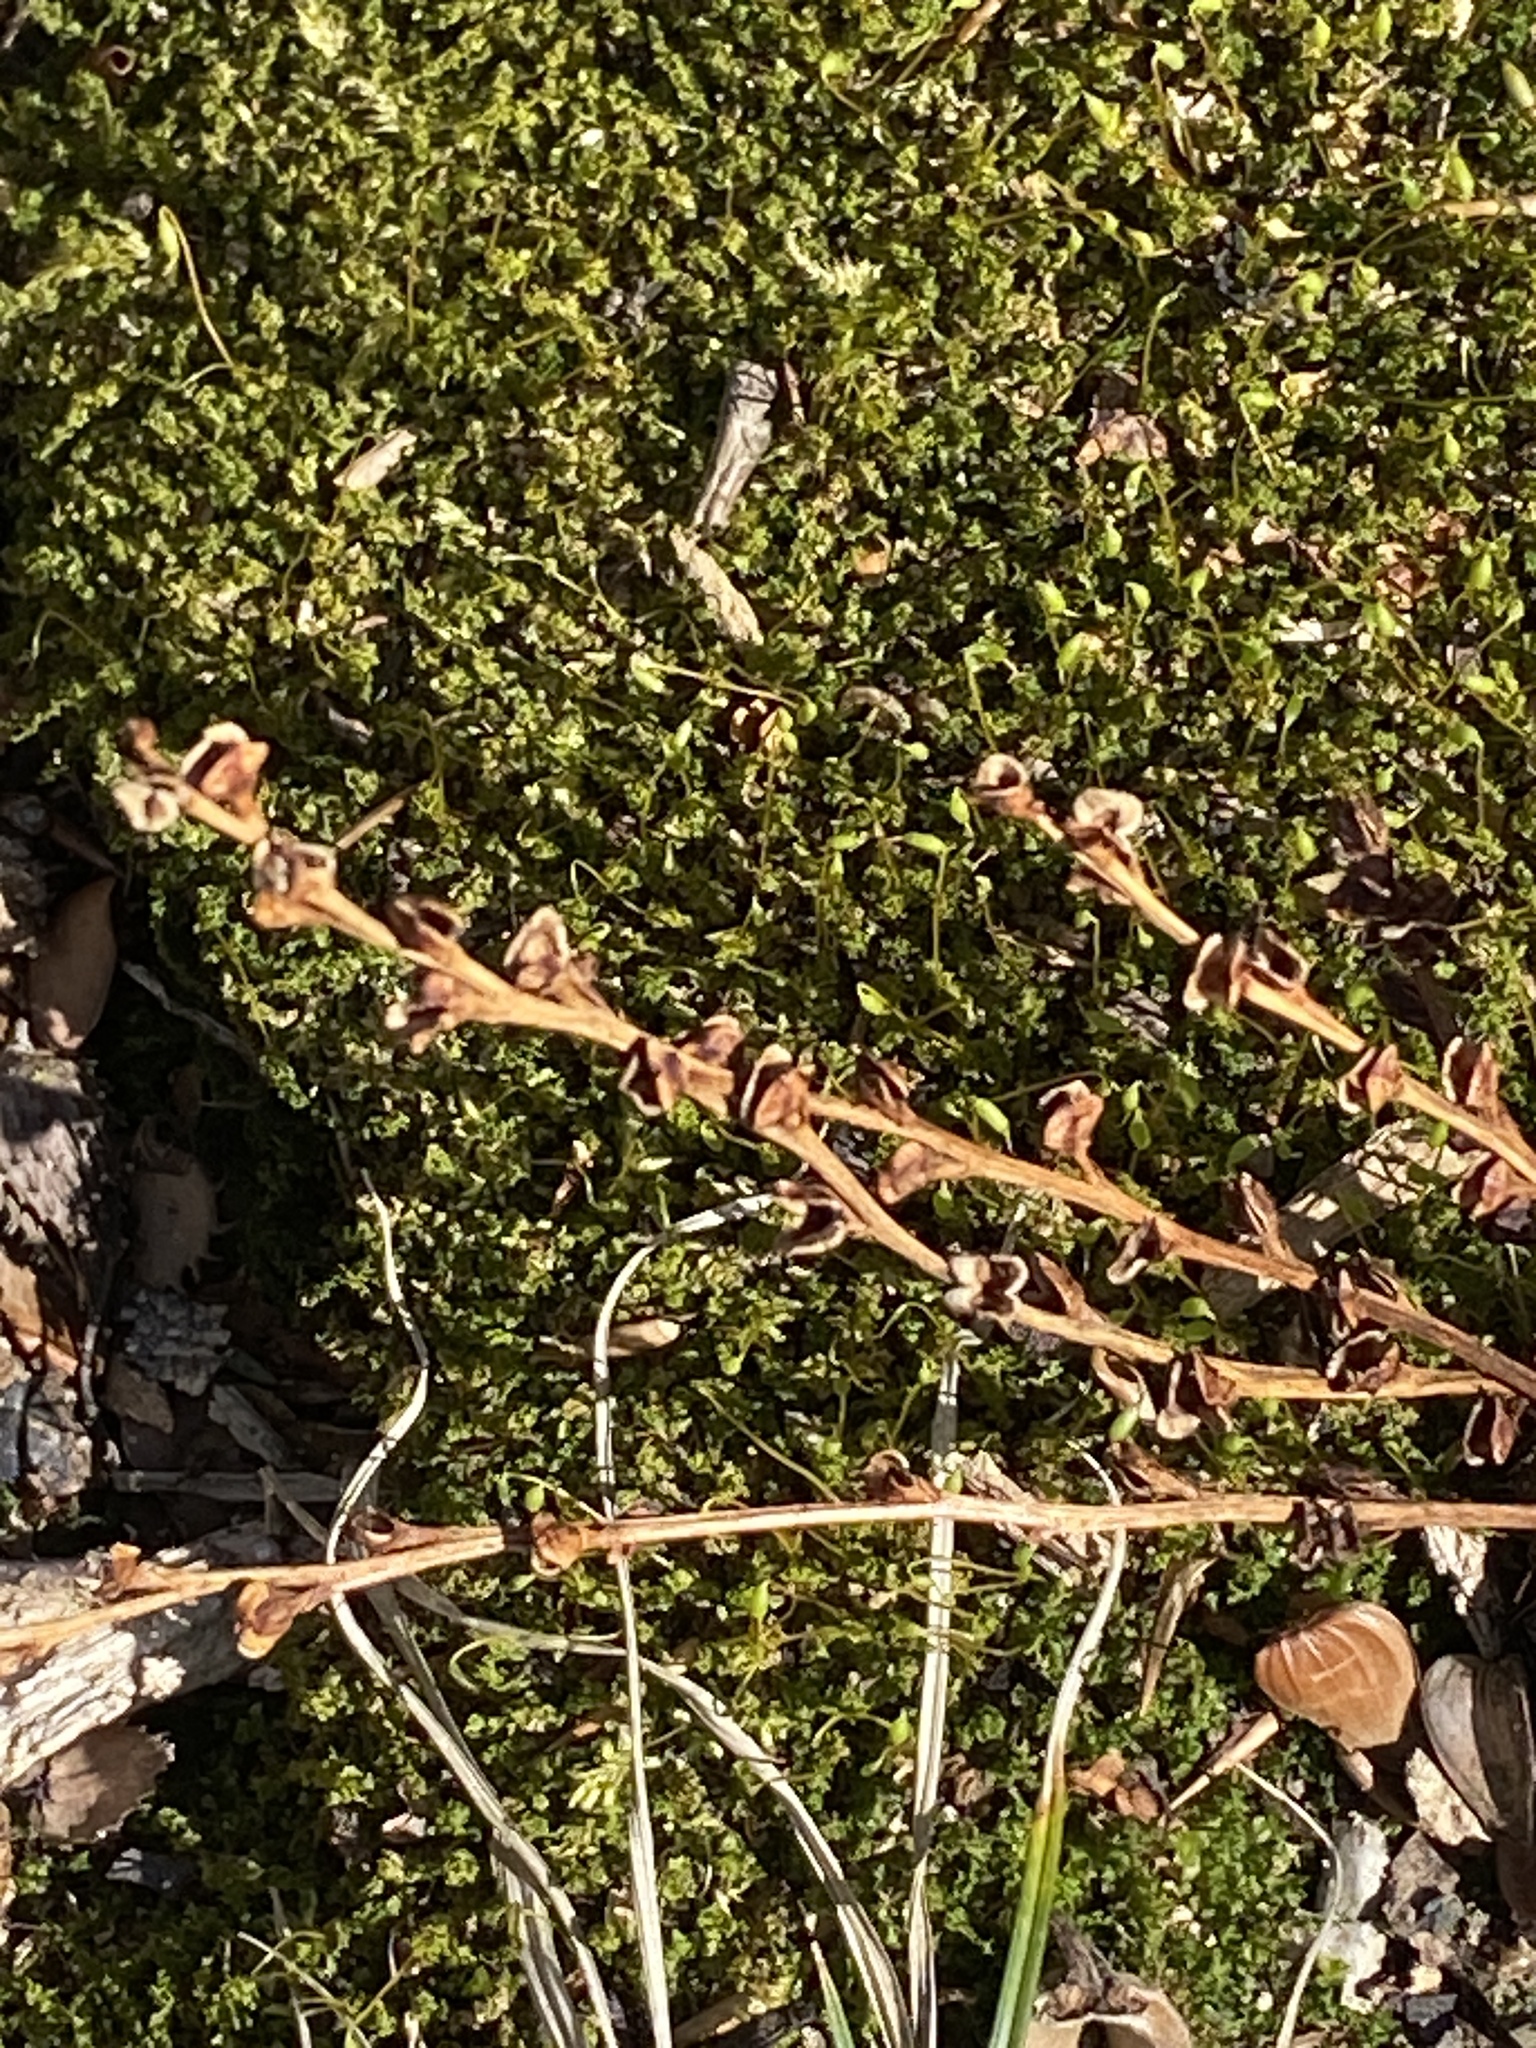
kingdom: Plantae
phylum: Tracheophyta
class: Magnoliopsida
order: Lamiales
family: Orobanchaceae
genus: Epifagus
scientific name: Epifagus virginiana
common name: Beechdrops
